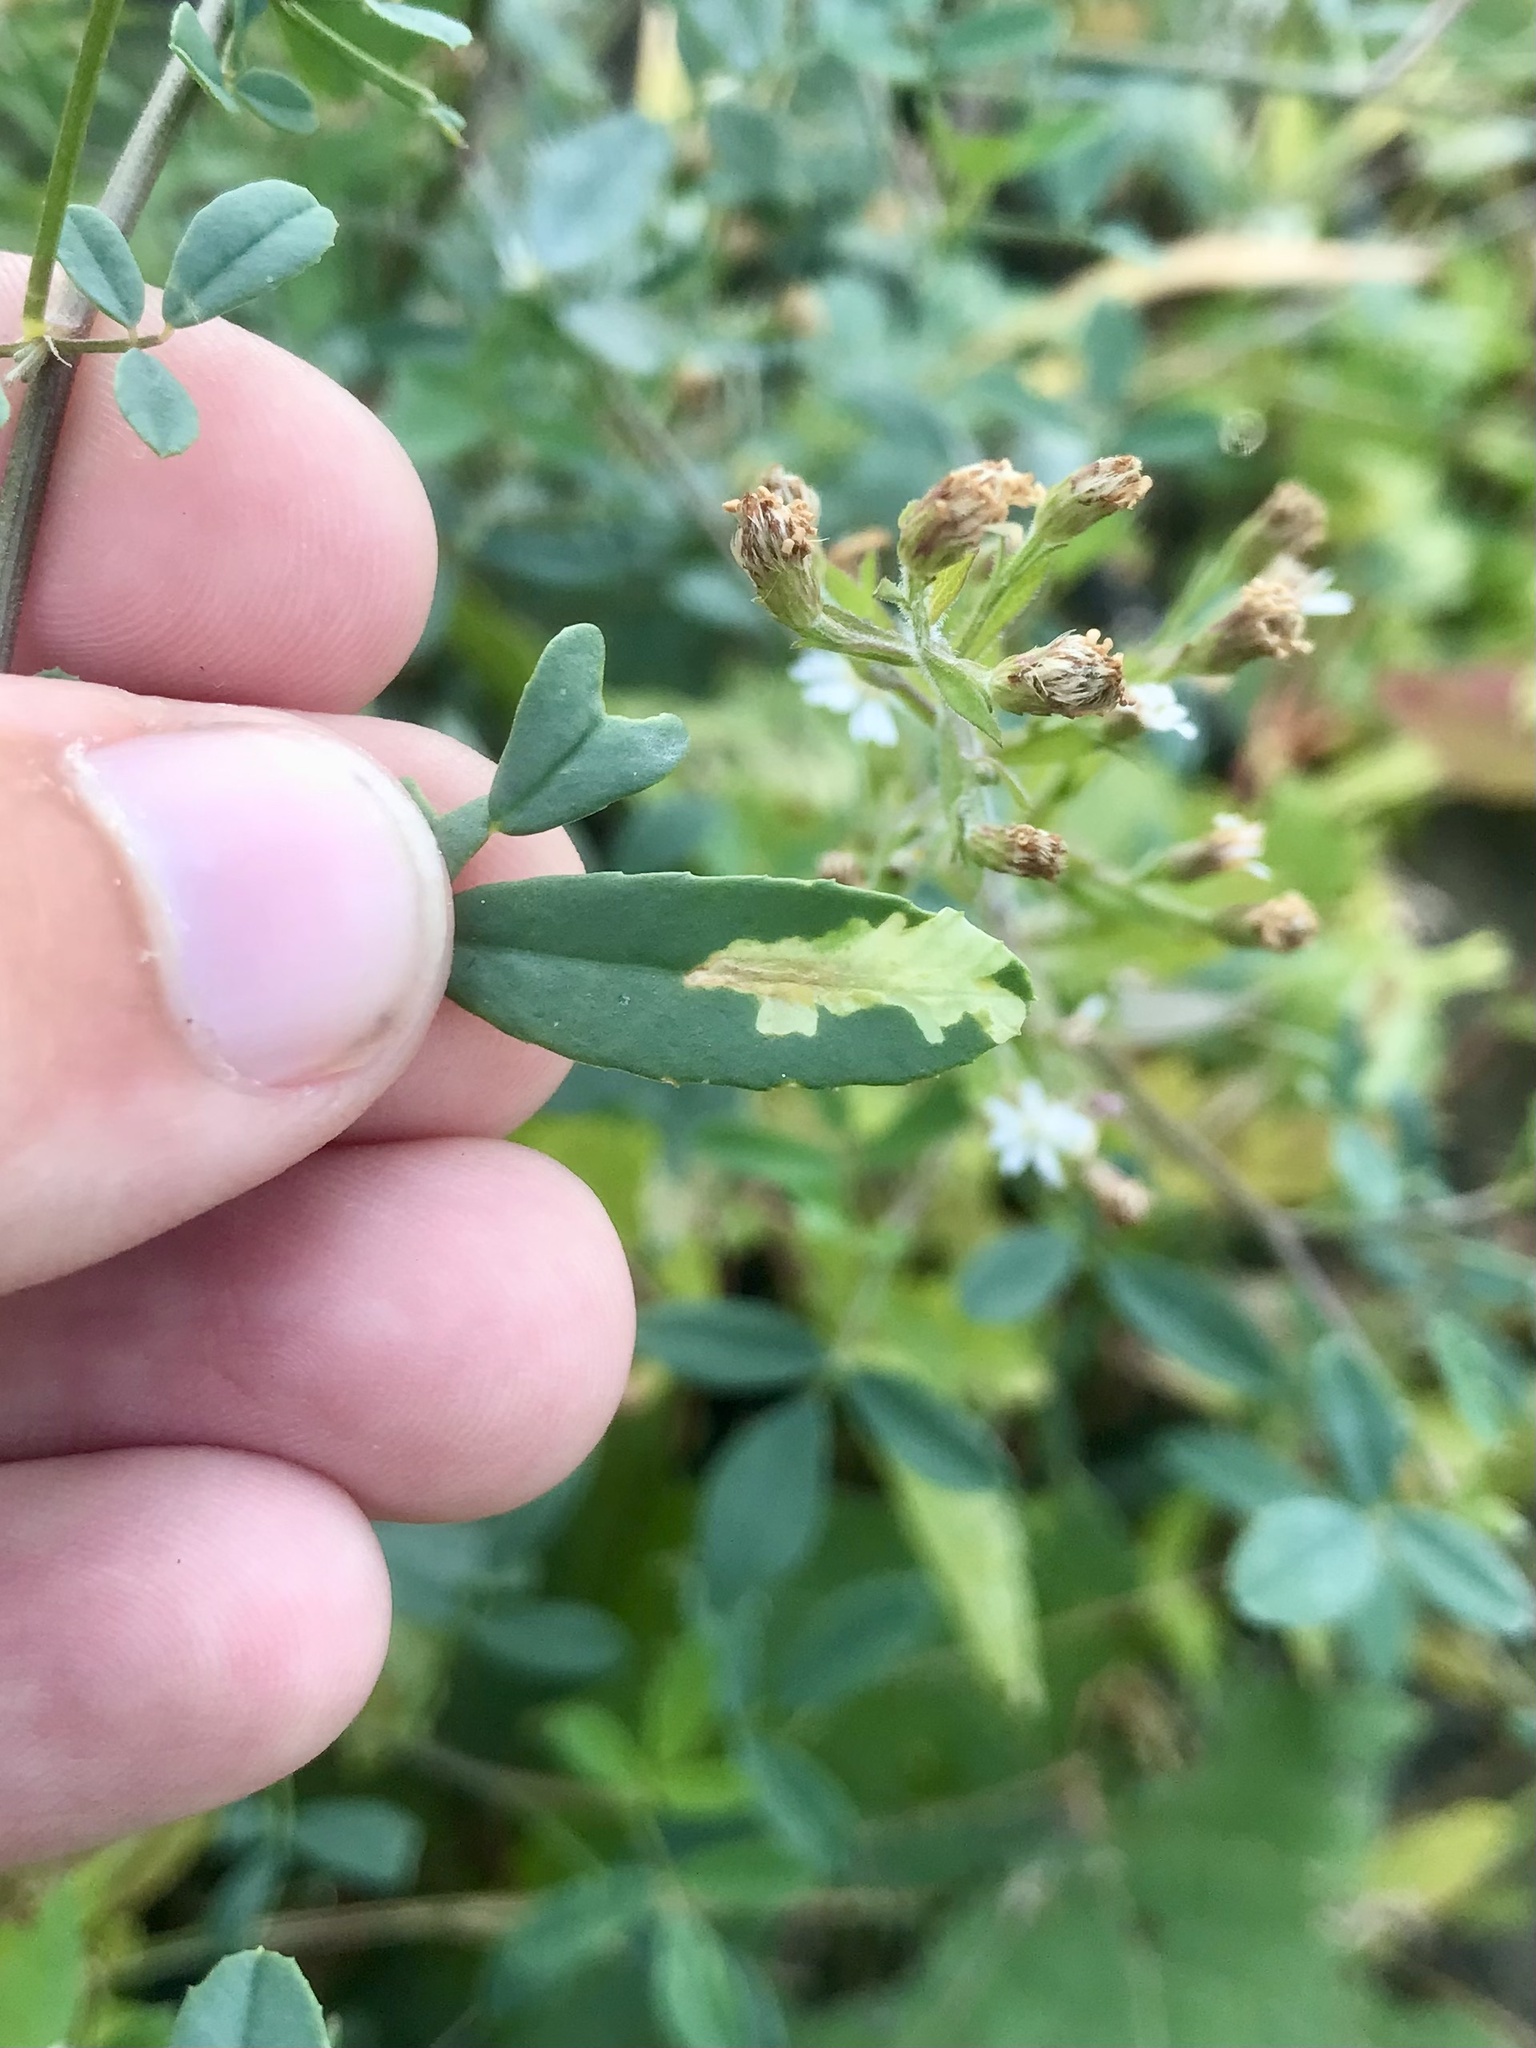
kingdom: Animalia
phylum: Arthropoda
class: Insecta
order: Lepidoptera
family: Gracillariidae
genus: Micrurapteryx
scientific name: Micrurapteryx occulta
